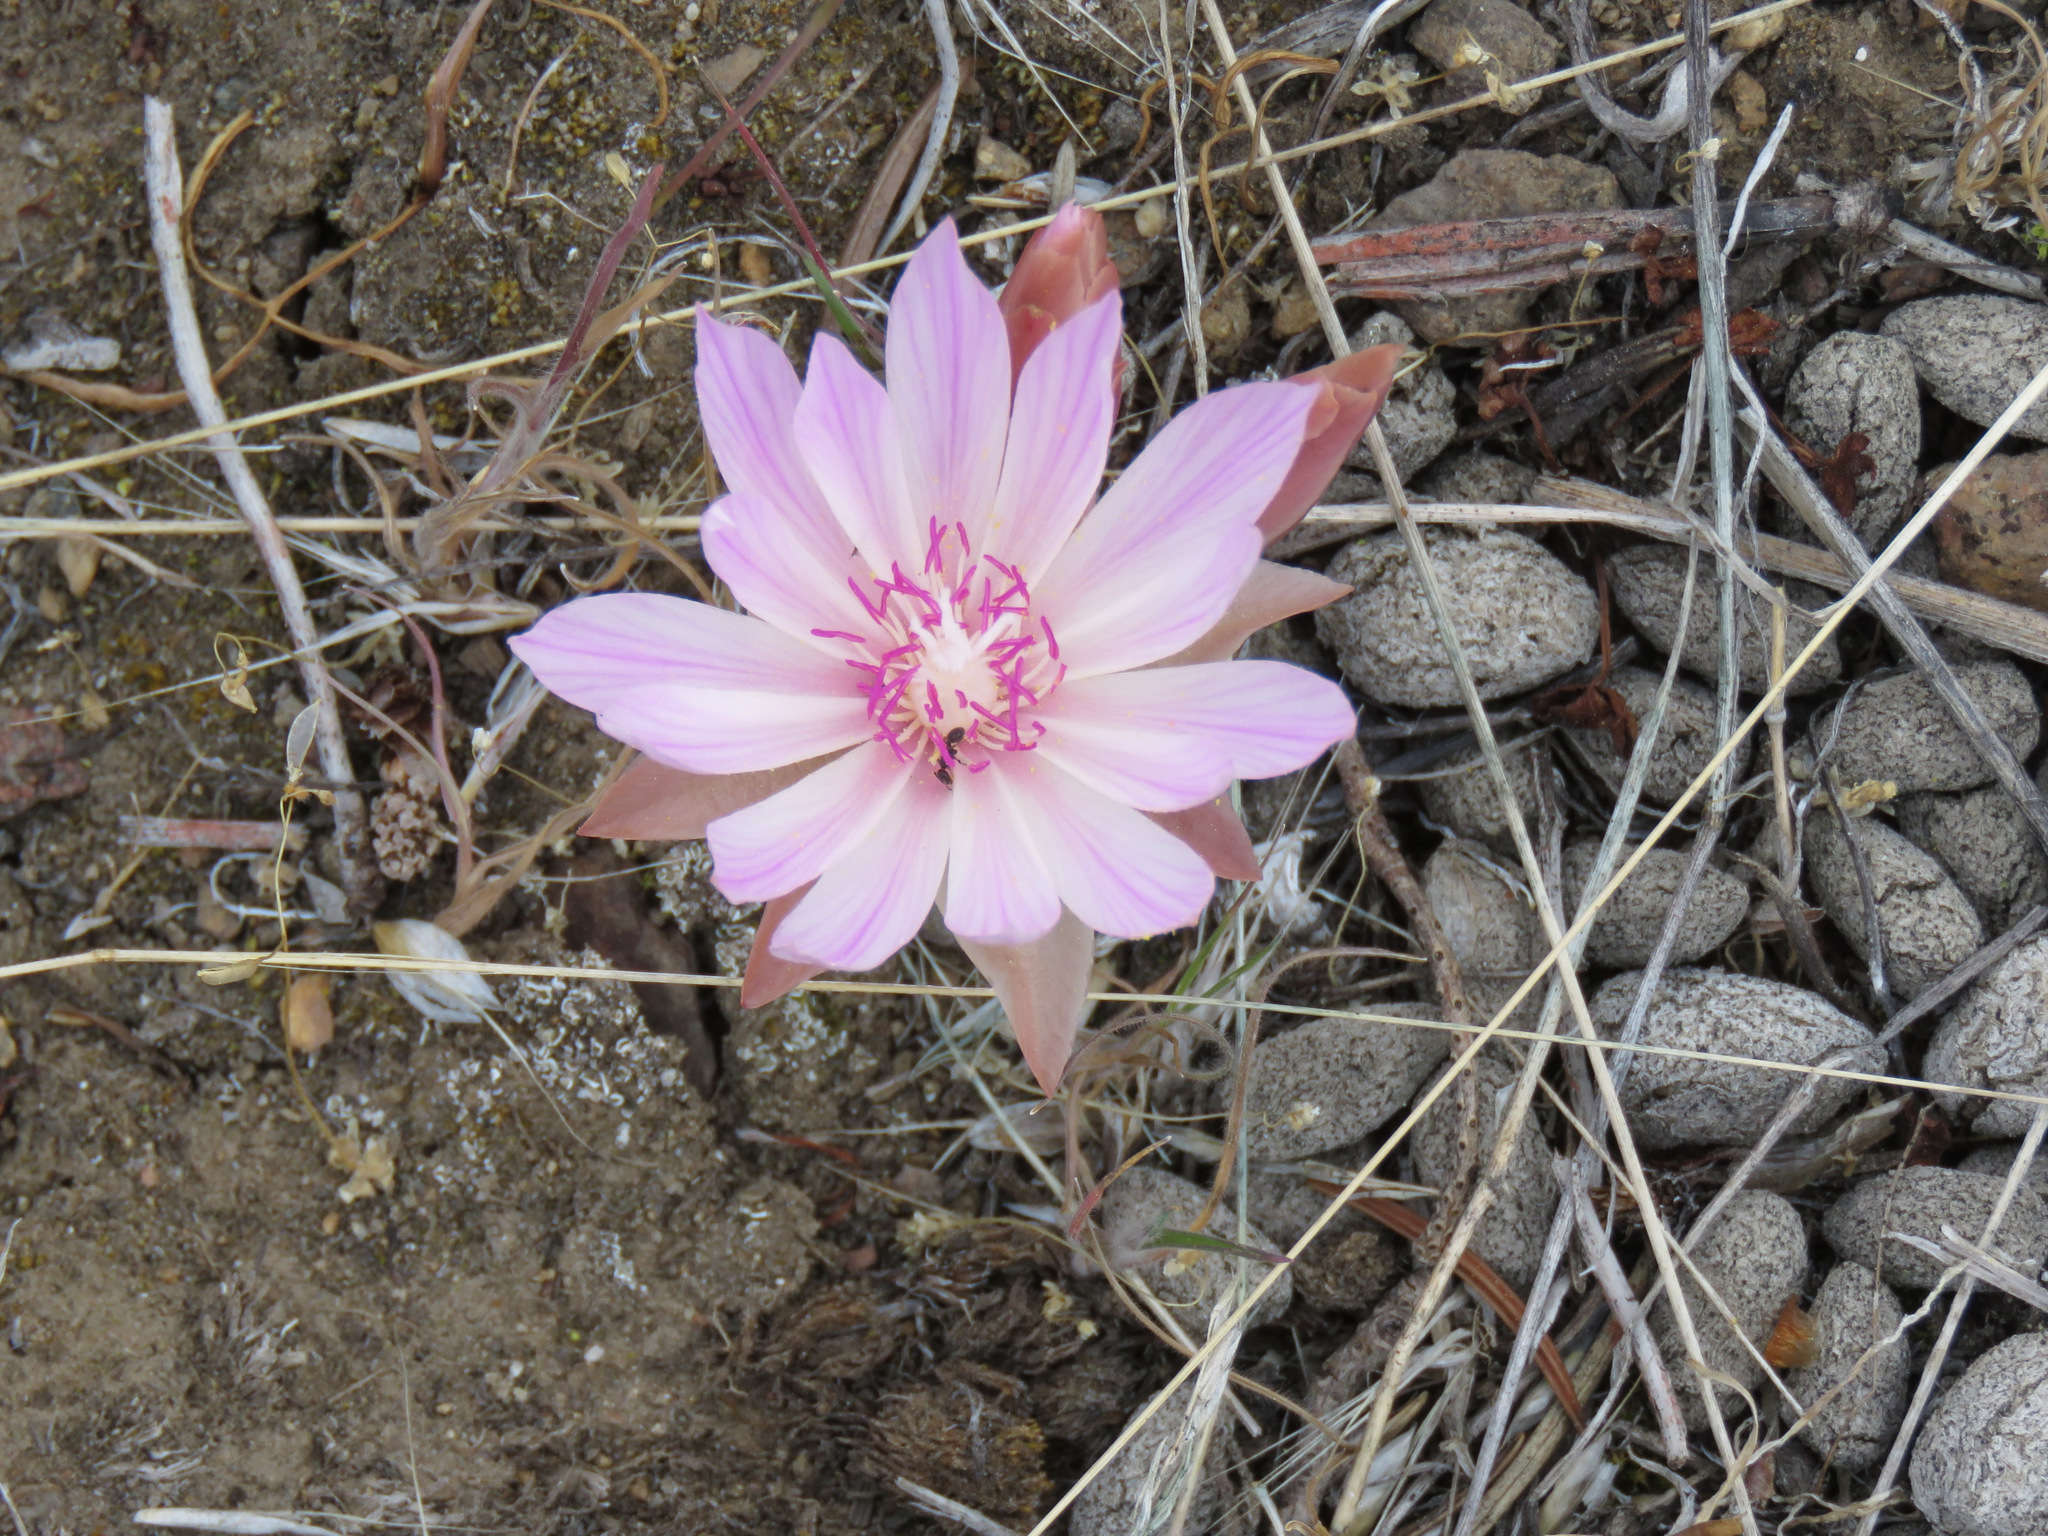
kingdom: Plantae
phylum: Tracheophyta
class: Magnoliopsida
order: Caryophyllales
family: Montiaceae
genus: Lewisia
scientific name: Lewisia rediviva
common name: Bitter-root
